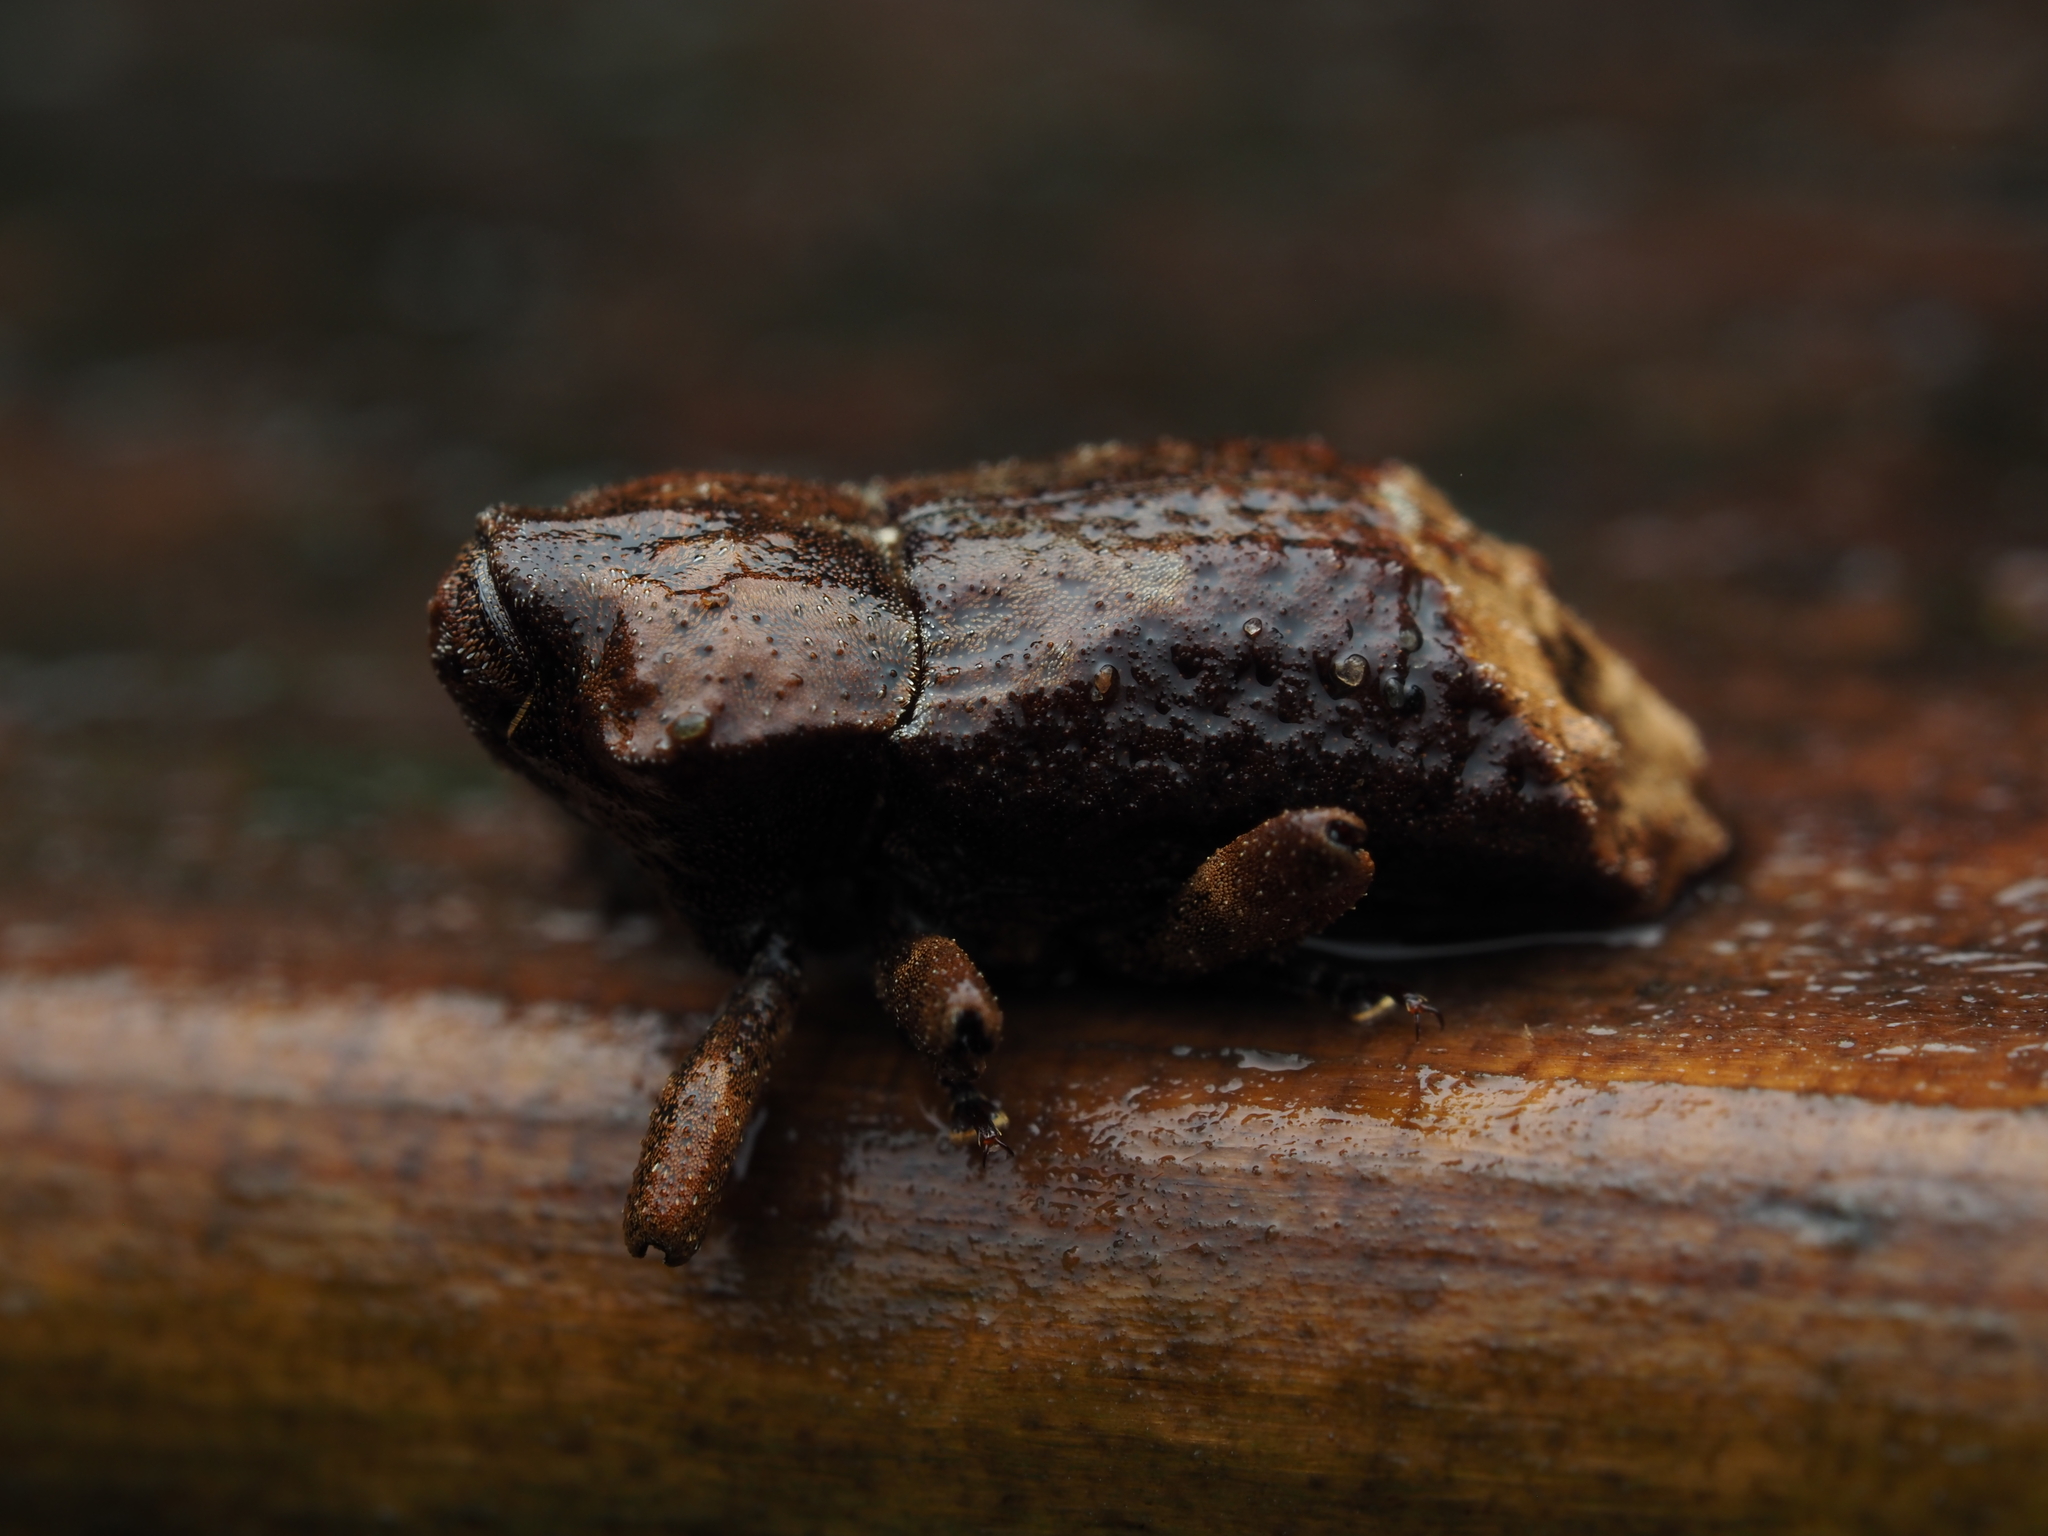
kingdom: Animalia
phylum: Arthropoda
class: Insecta
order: Coleoptera
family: Curculionidae
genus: Ectopsis
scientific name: Ectopsis simplex
